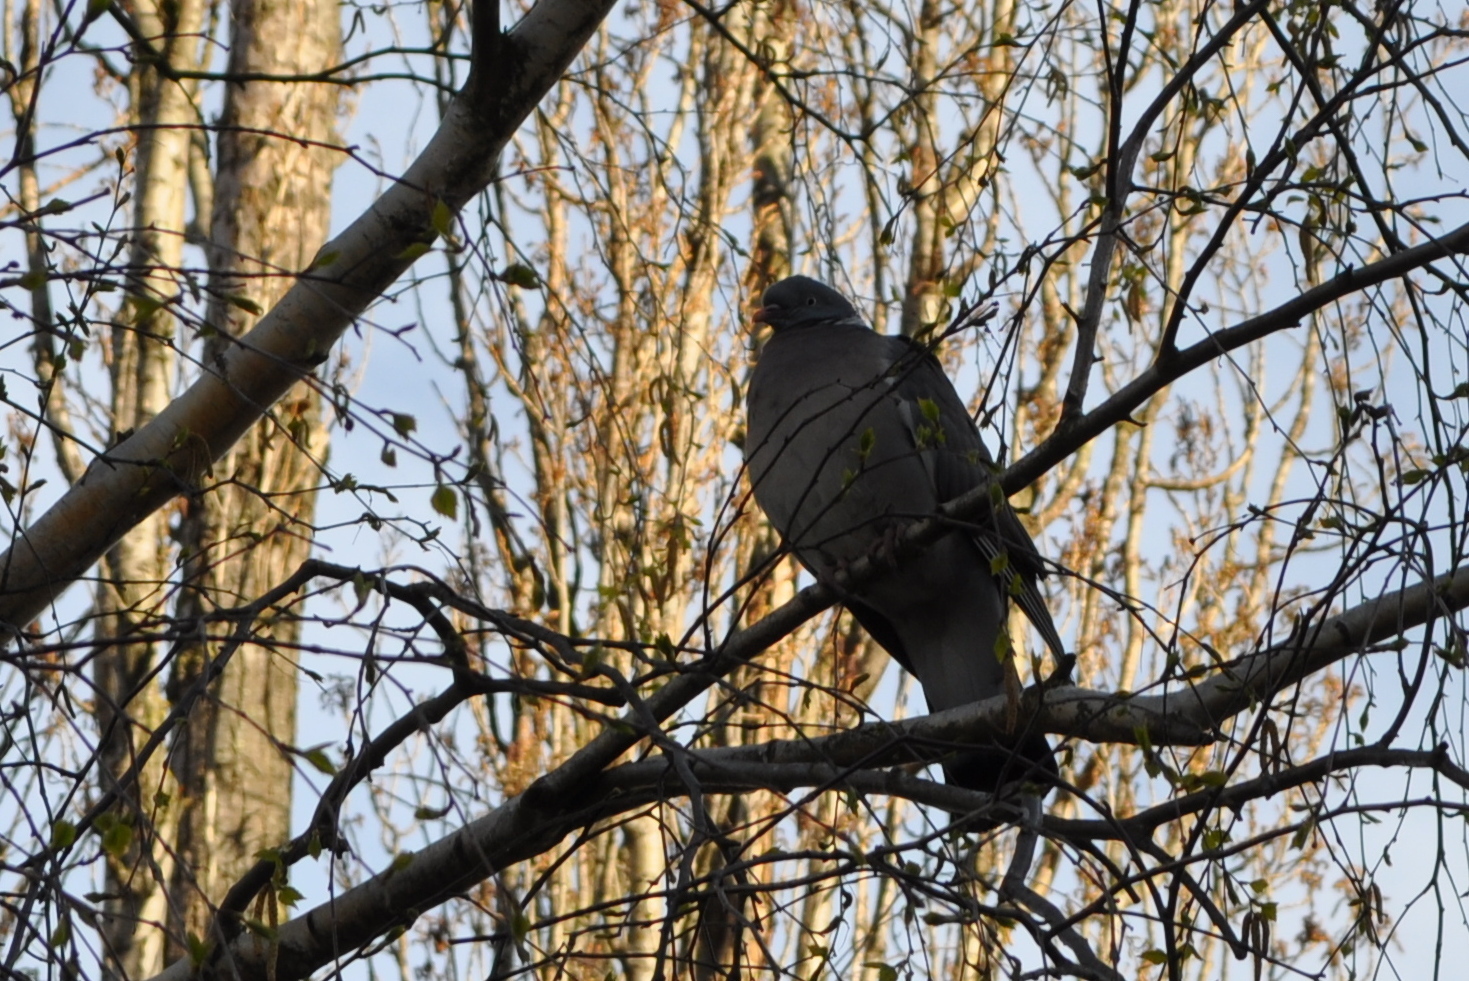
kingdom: Animalia
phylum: Chordata
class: Aves
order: Columbiformes
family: Columbidae
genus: Columba
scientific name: Columba palumbus
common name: Common wood pigeon
